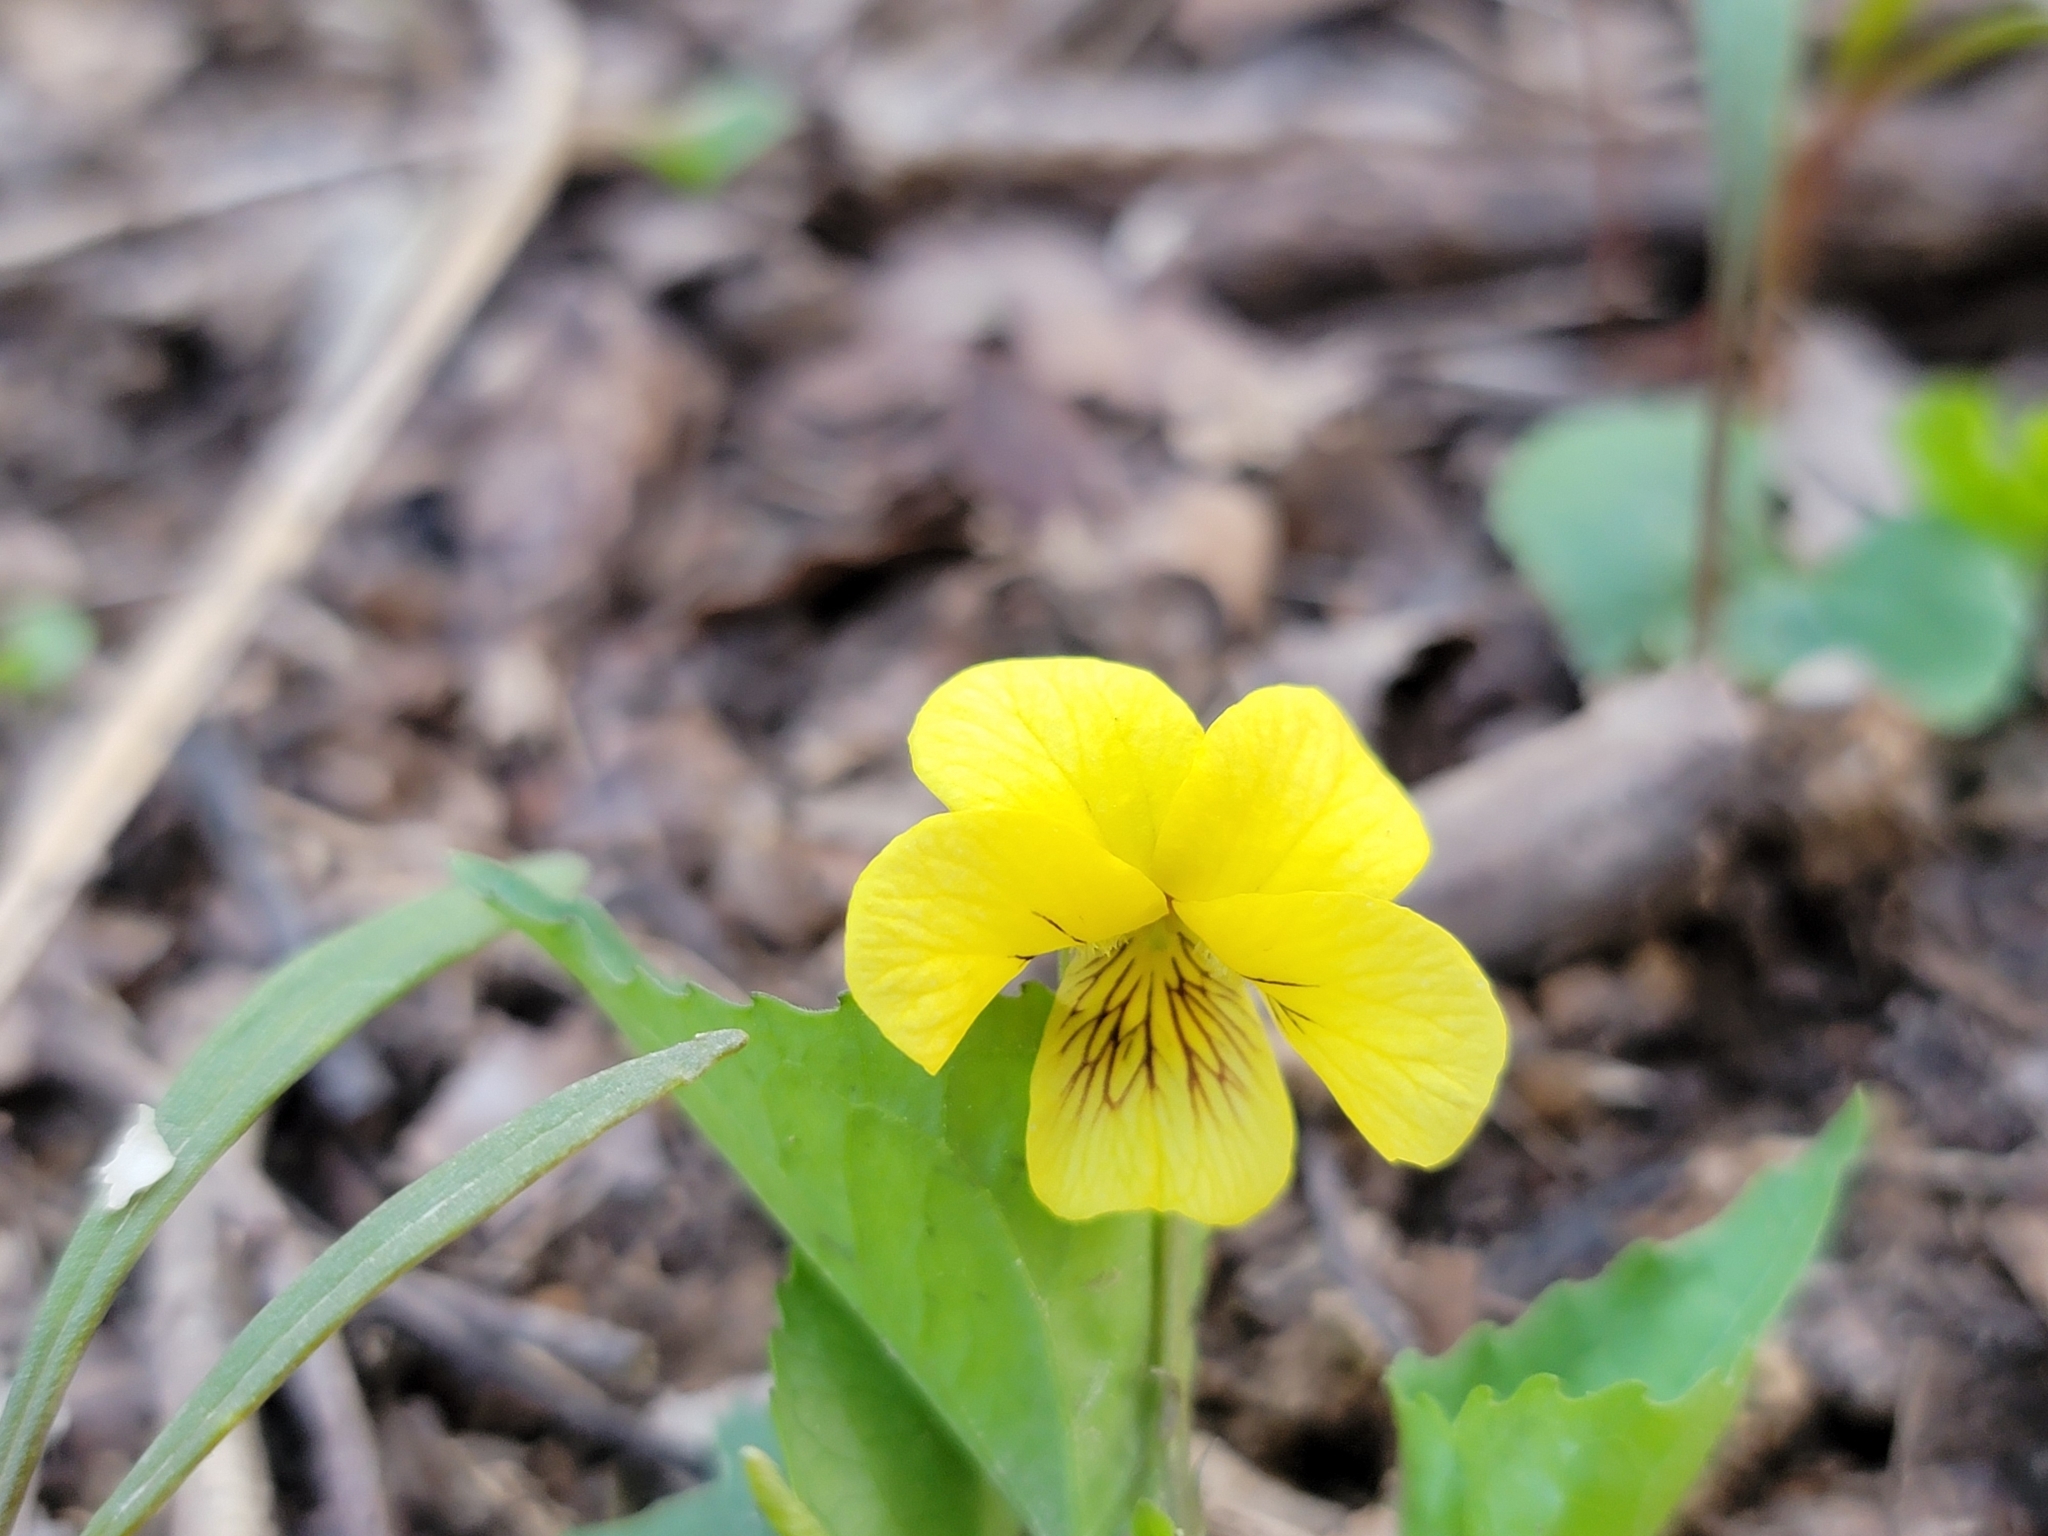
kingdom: Plantae
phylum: Tracheophyta
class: Magnoliopsida
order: Malpighiales
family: Violaceae
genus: Viola
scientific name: Viola eriocarpa
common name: Smooth yellow violet
